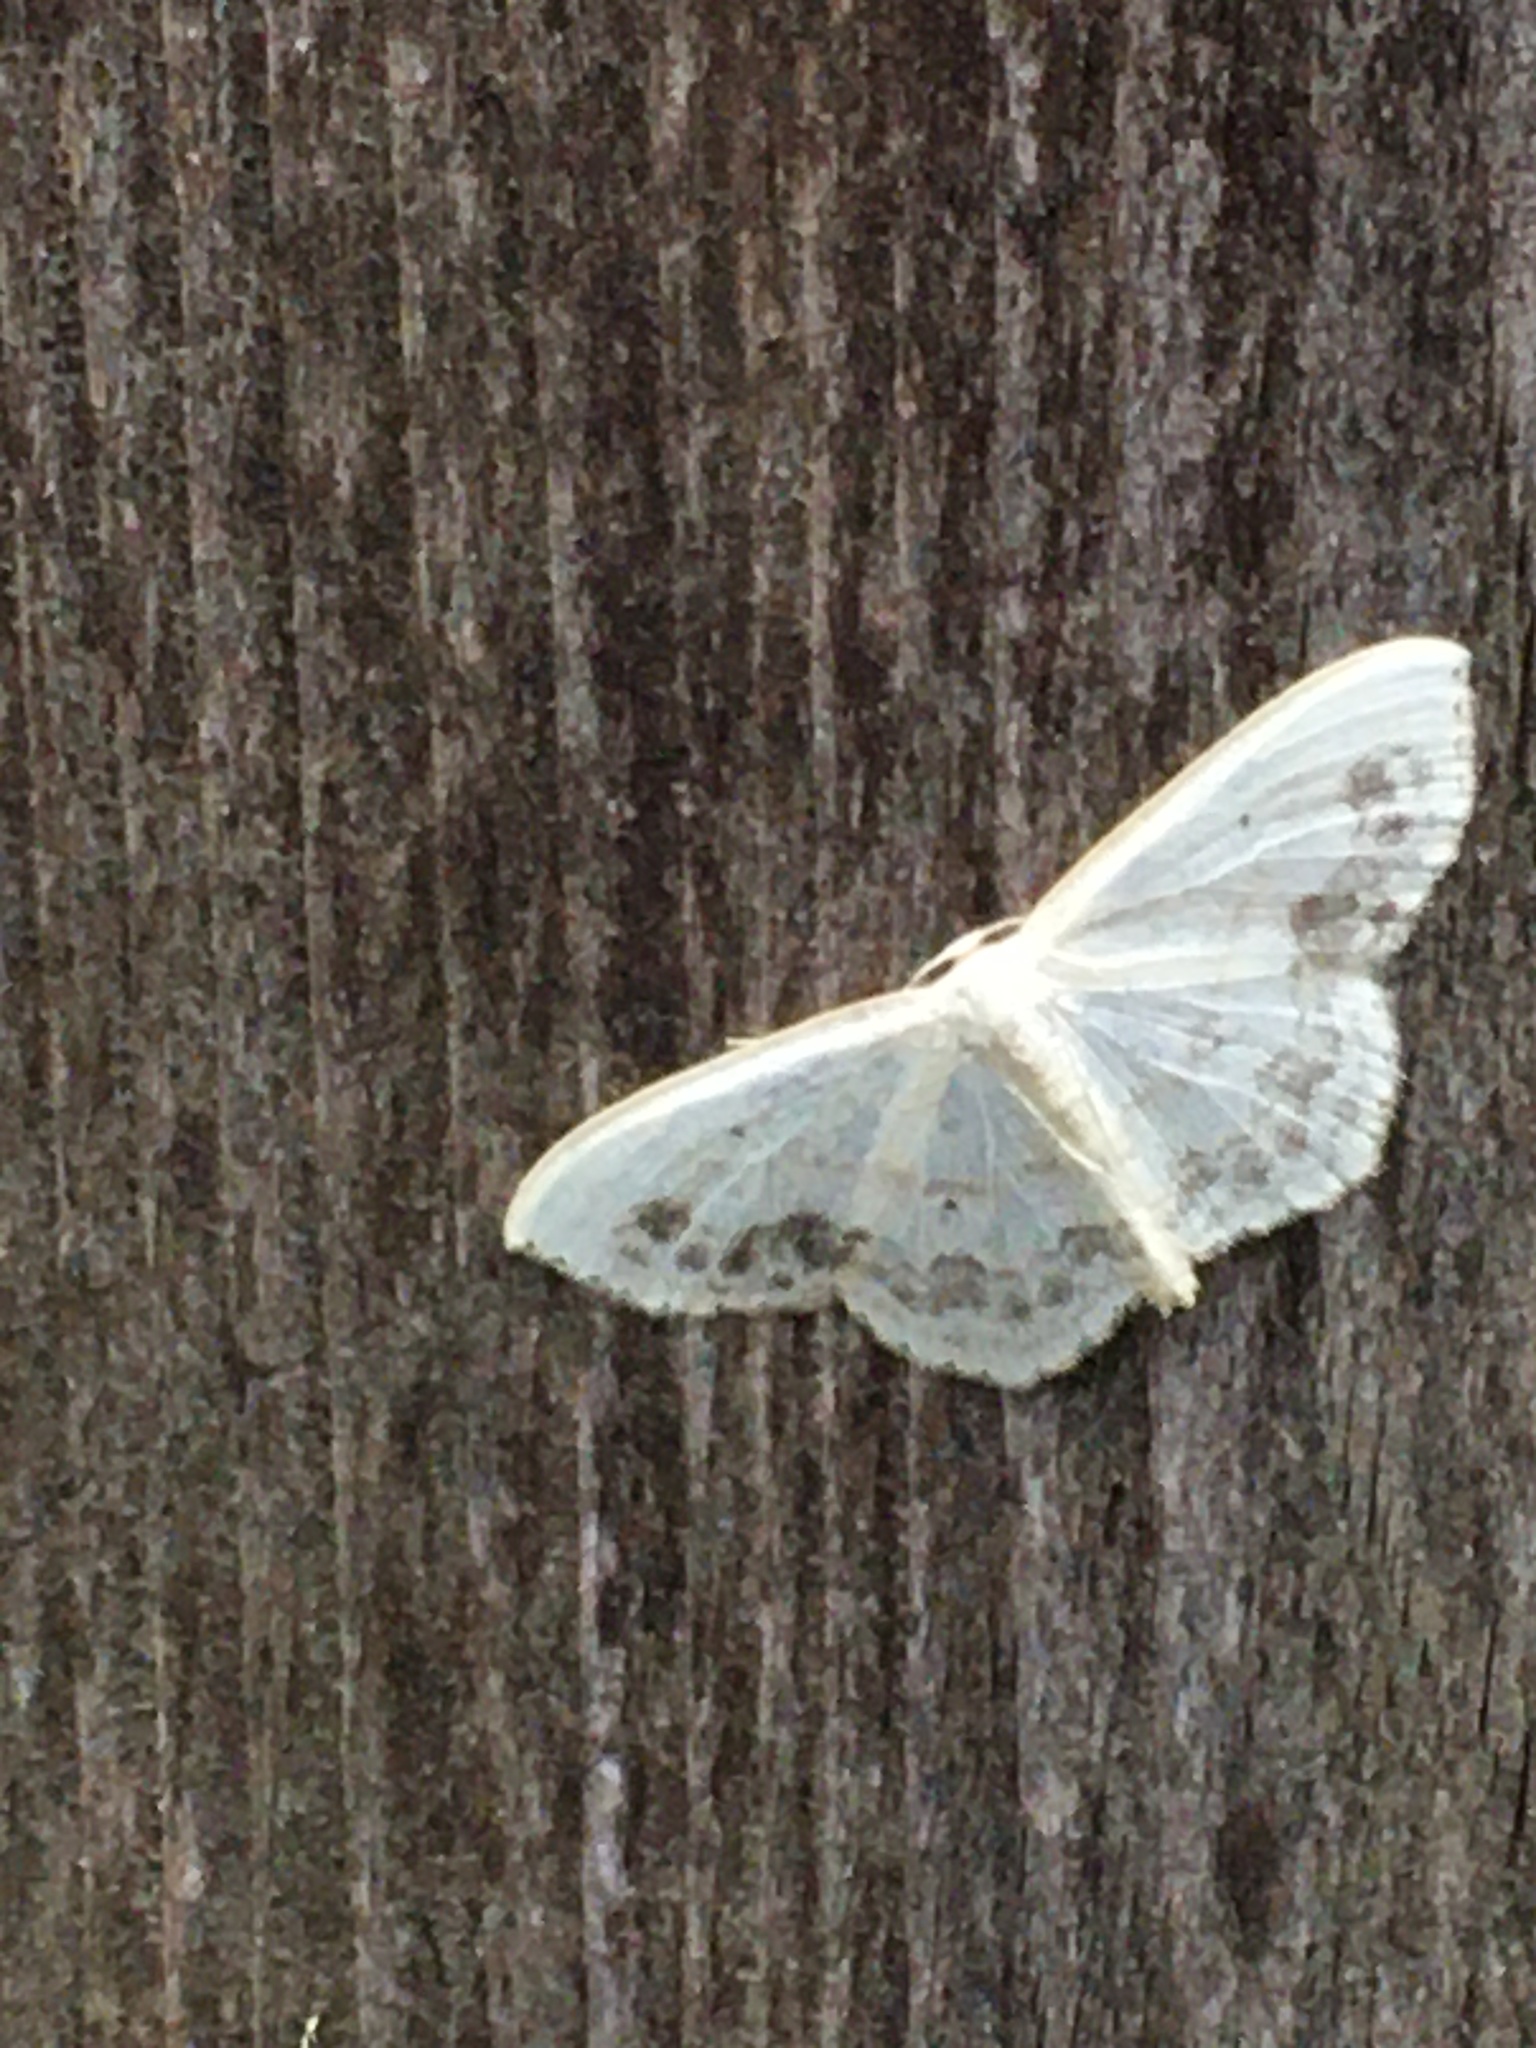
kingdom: Animalia
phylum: Arthropoda
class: Insecta
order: Lepidoptera
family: Geometridae
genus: Scopula
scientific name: Scopula limboundata
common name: Large lace border
